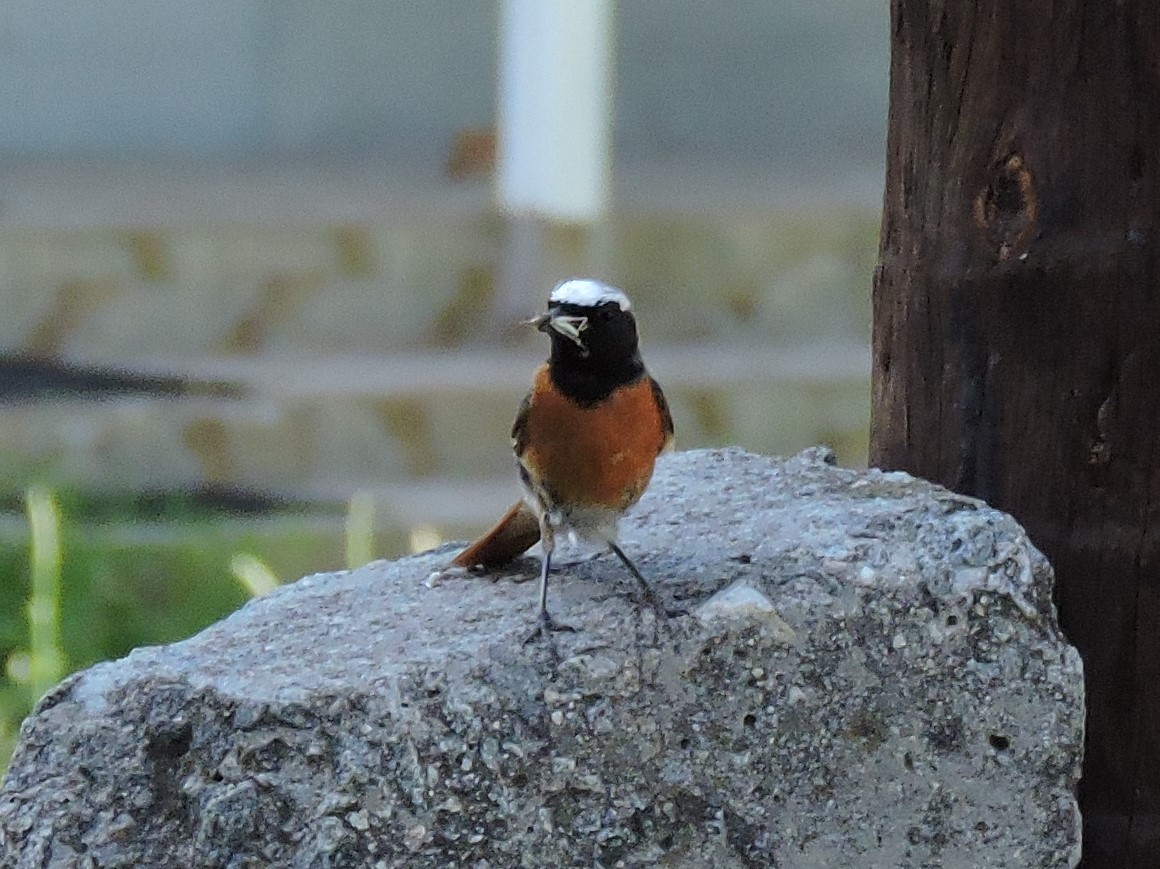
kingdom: Animalia
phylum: Chordata
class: Aves
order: Passeriformes
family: Muscicapidae
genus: Phoenicurus
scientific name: Phoenicurus phoenicurus
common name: Common redstart
